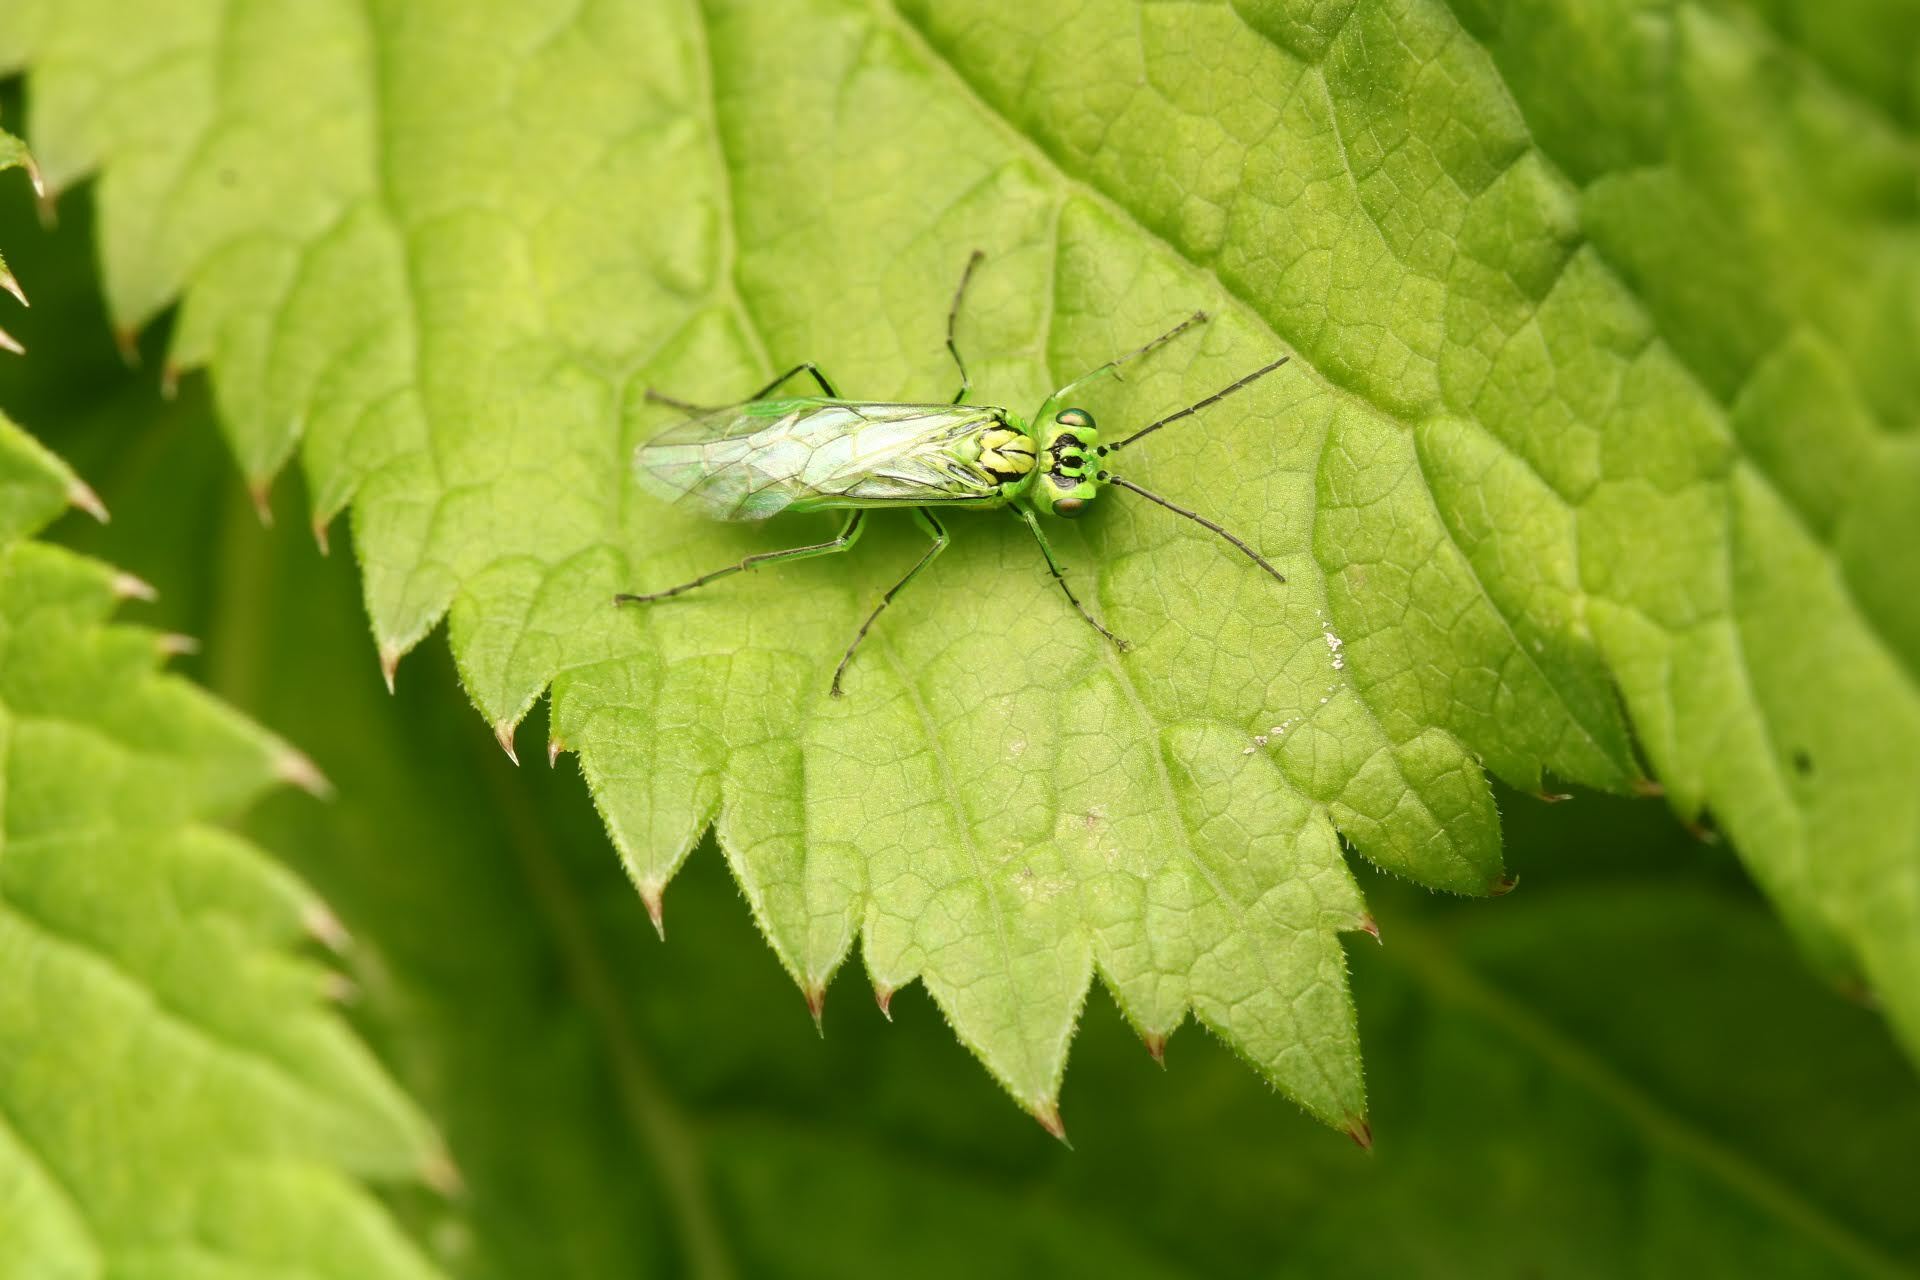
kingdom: Animalia
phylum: Arthropoda
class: Insecta
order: Hymenoptera
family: Tenthredinidae
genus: Rhogogaster
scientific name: Rhogogaster punctulata
